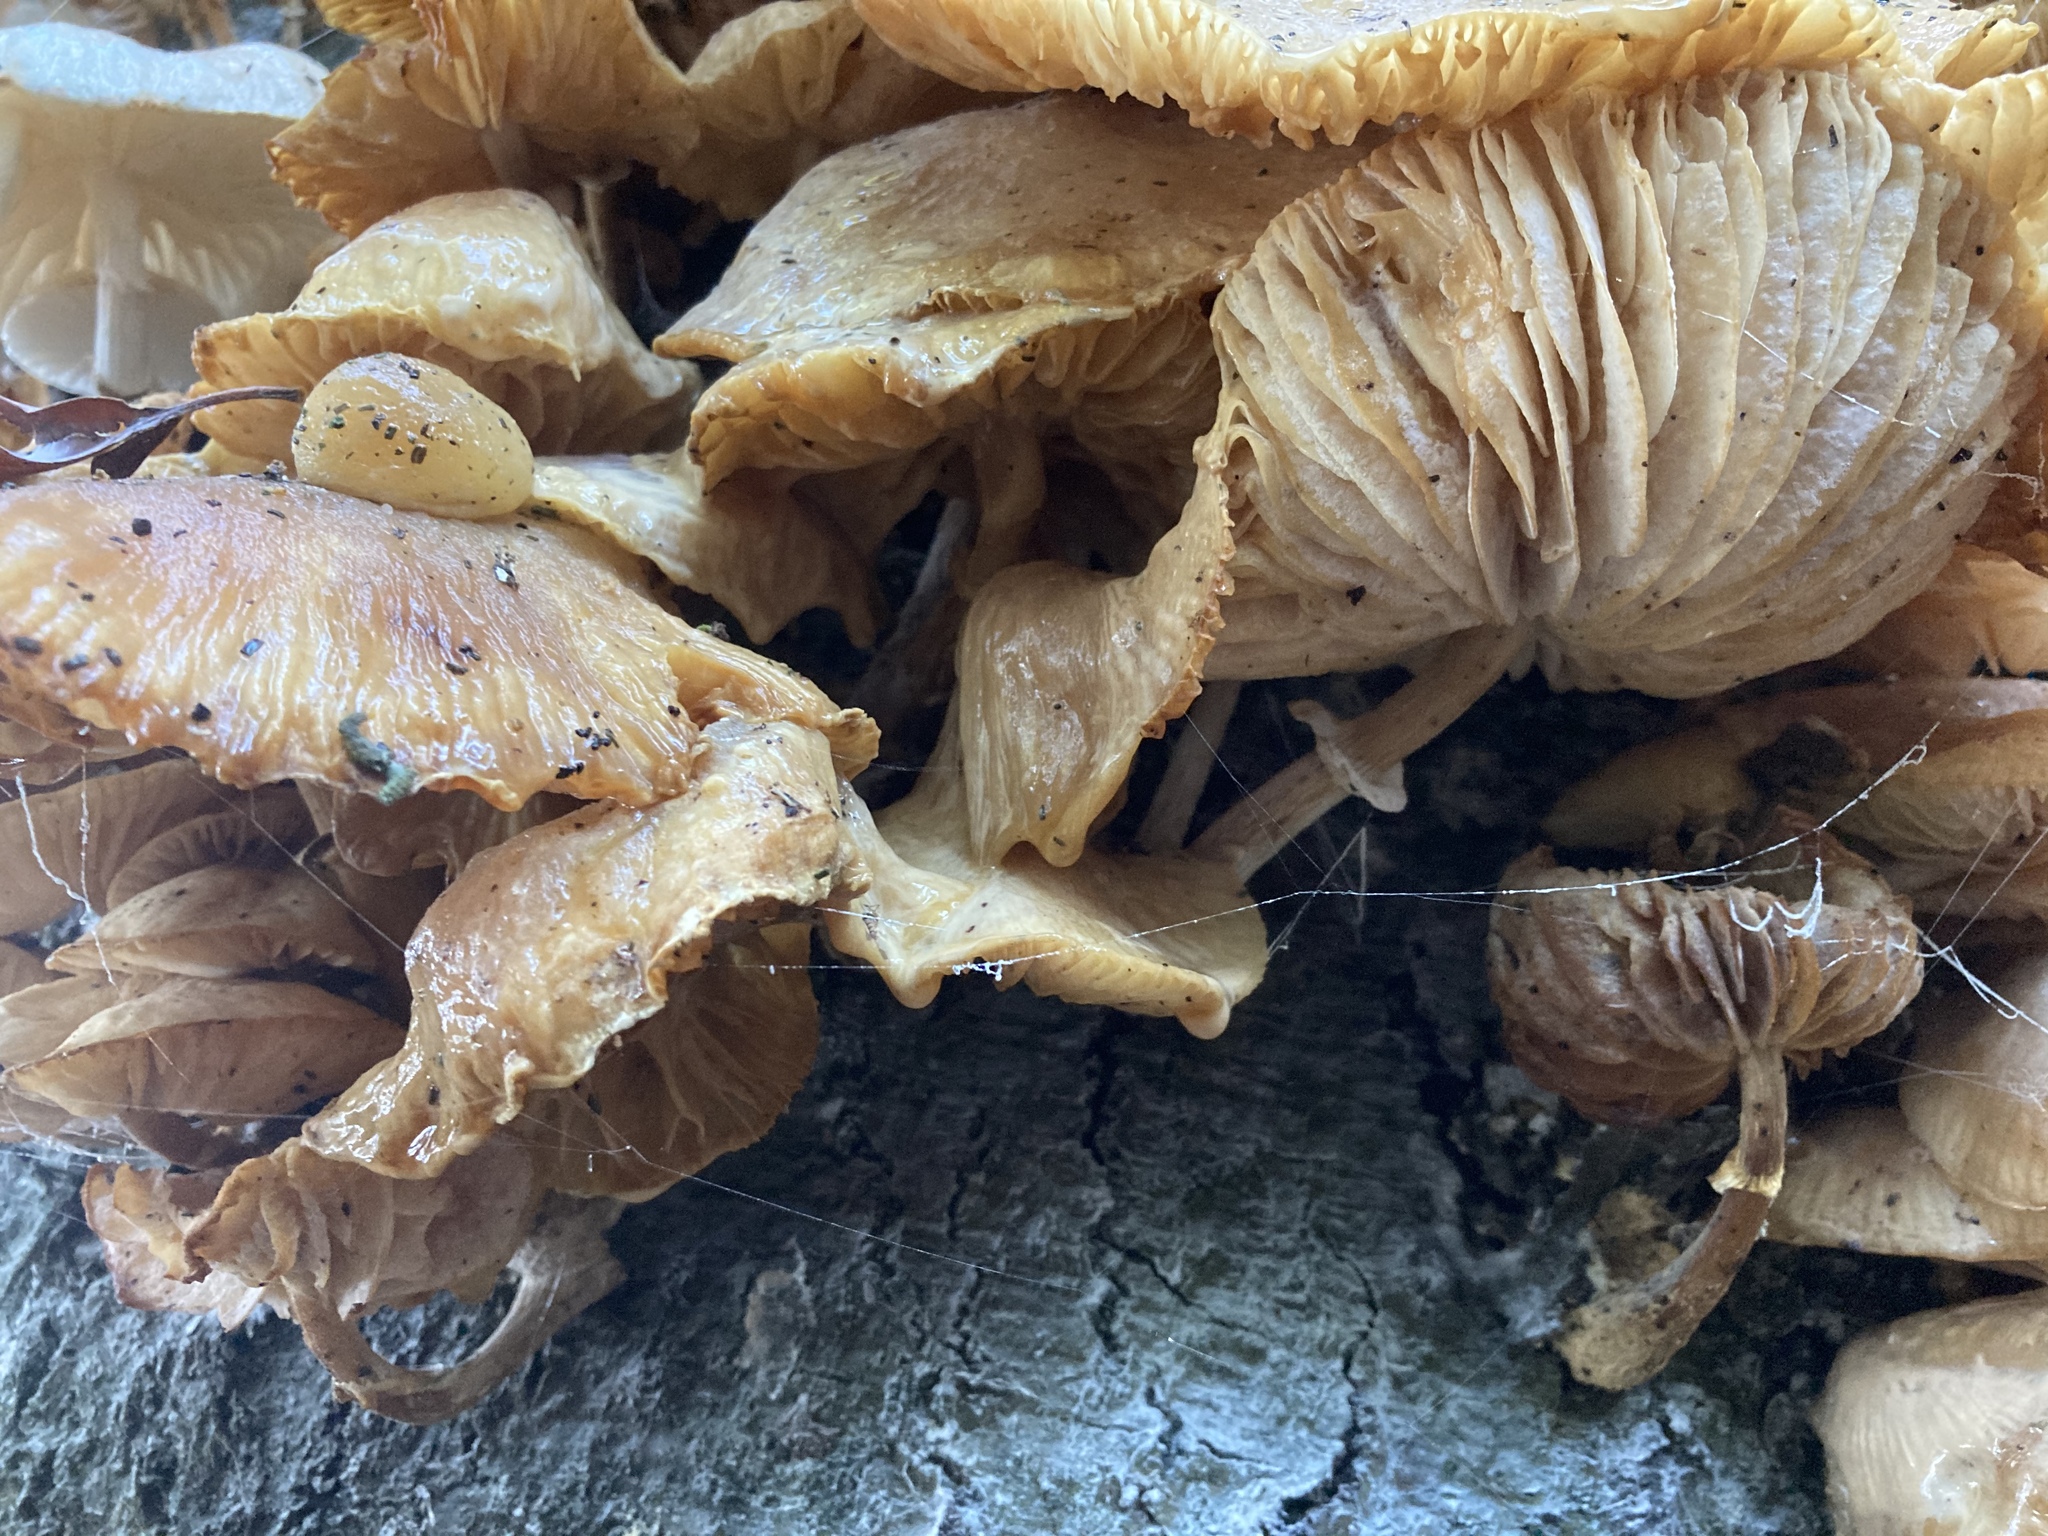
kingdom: Fungi
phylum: Basidiomycota
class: Agaricomycetes
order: Agaricales
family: Physalacriaceae
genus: Mucidula
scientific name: Mucidula mucida
